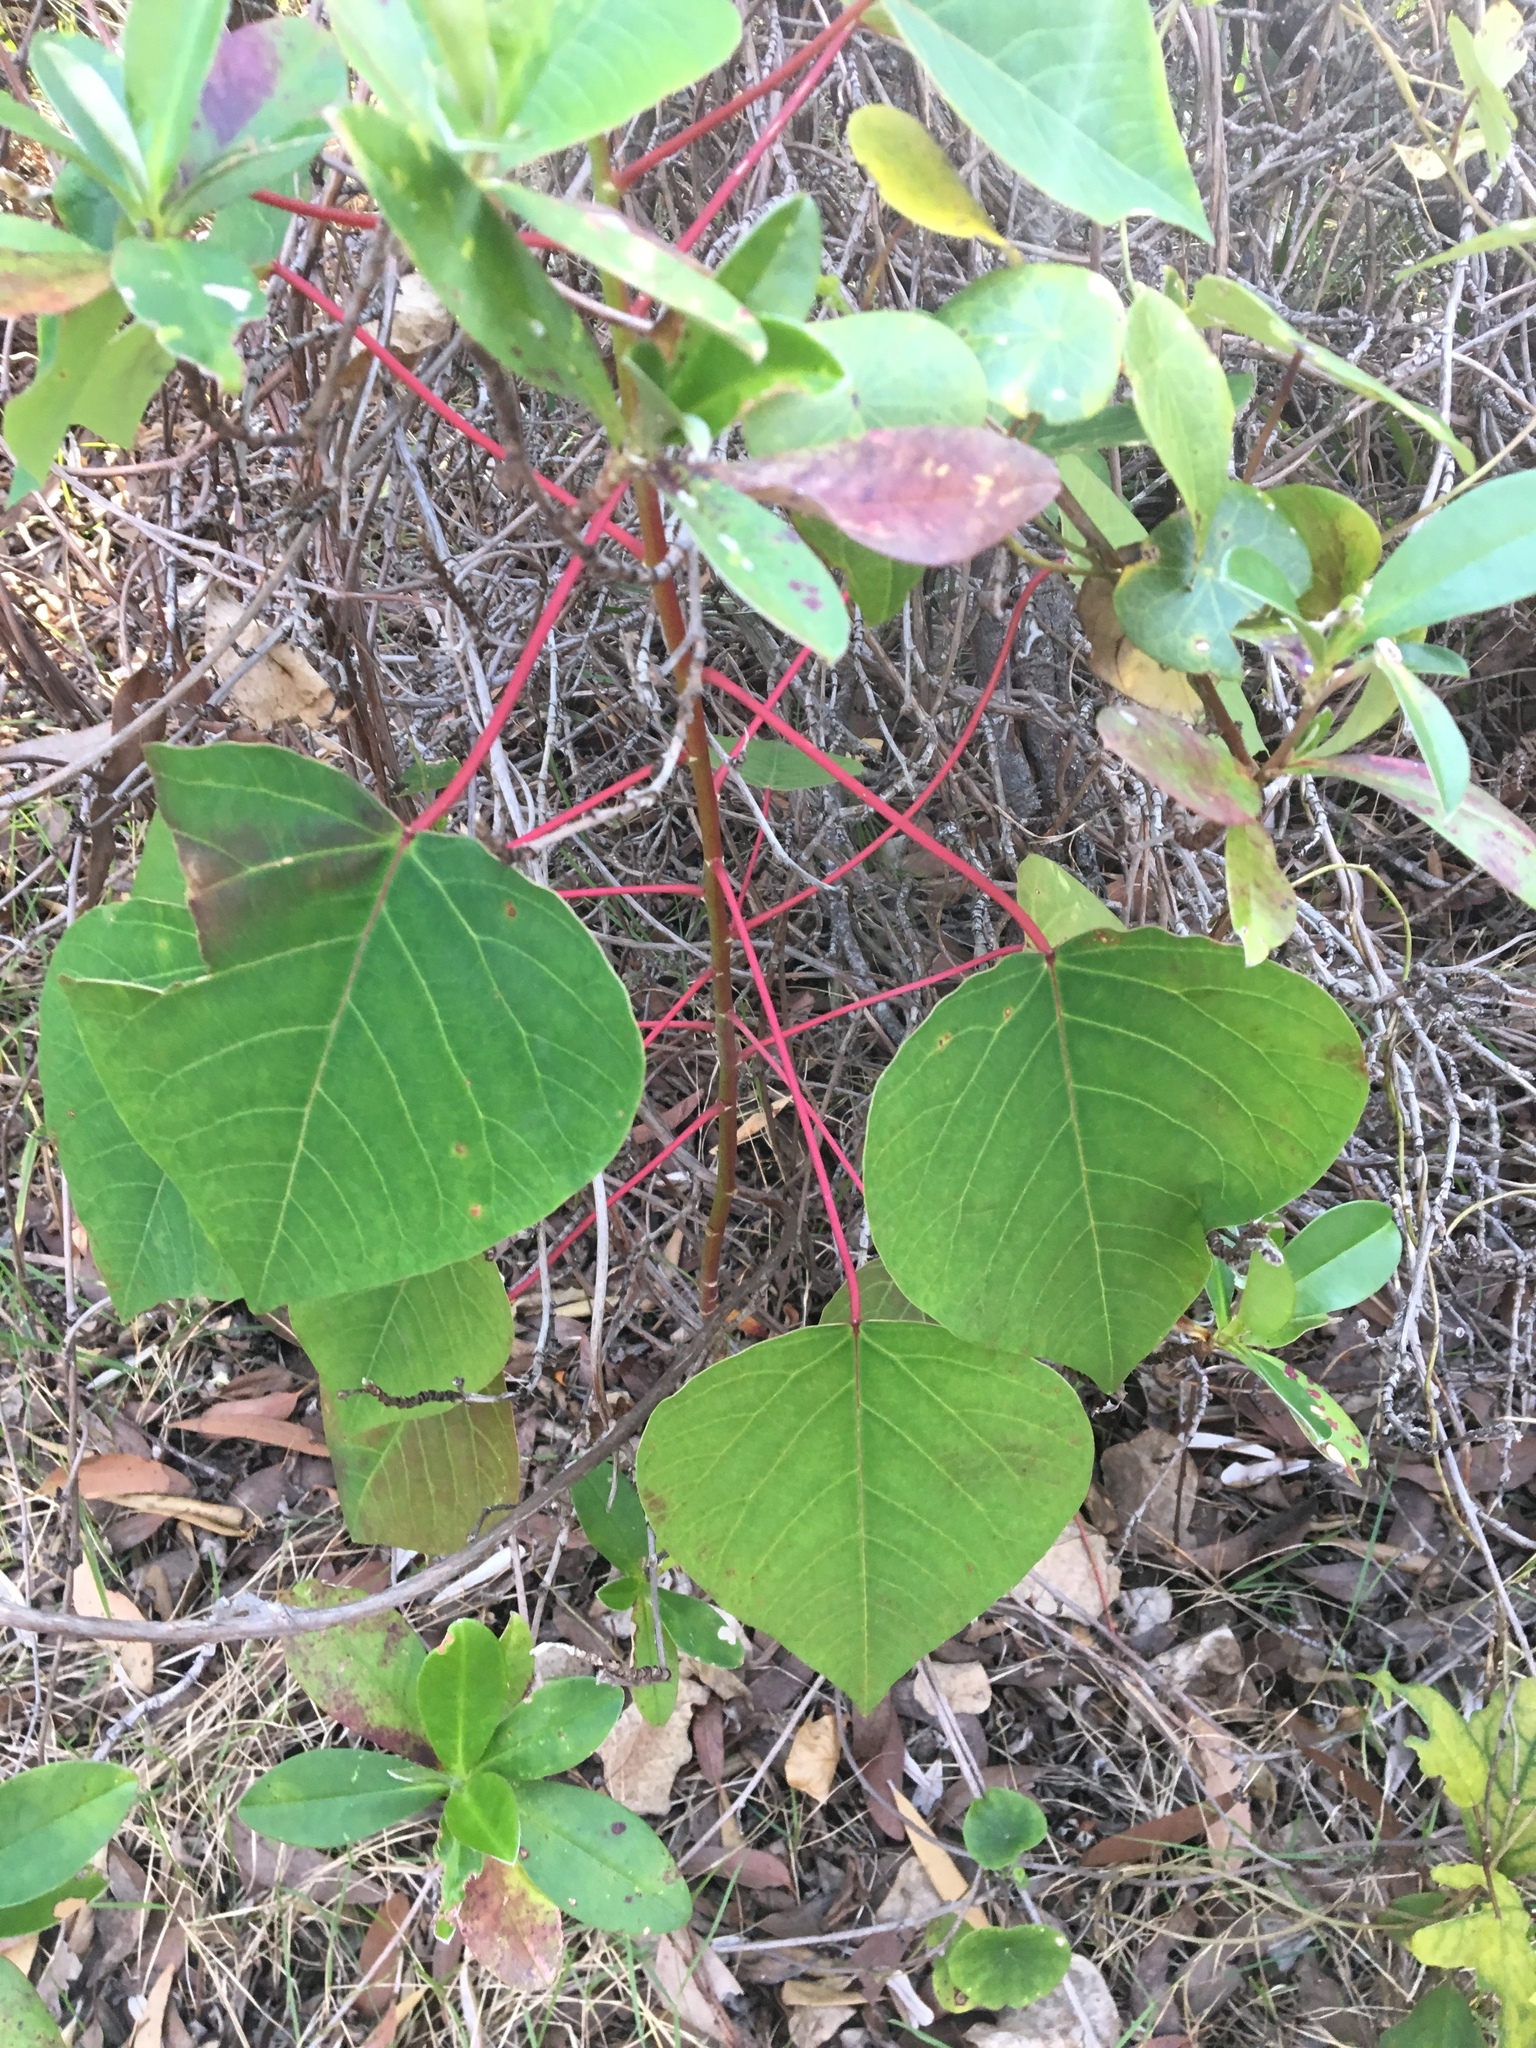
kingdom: Plantae
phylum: Tracheophyta
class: Magnoliopsida
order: Malpighiales
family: Euphorbiaceae
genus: Homalanthus
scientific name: Homalanthus populifolius
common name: Queensland poplar
